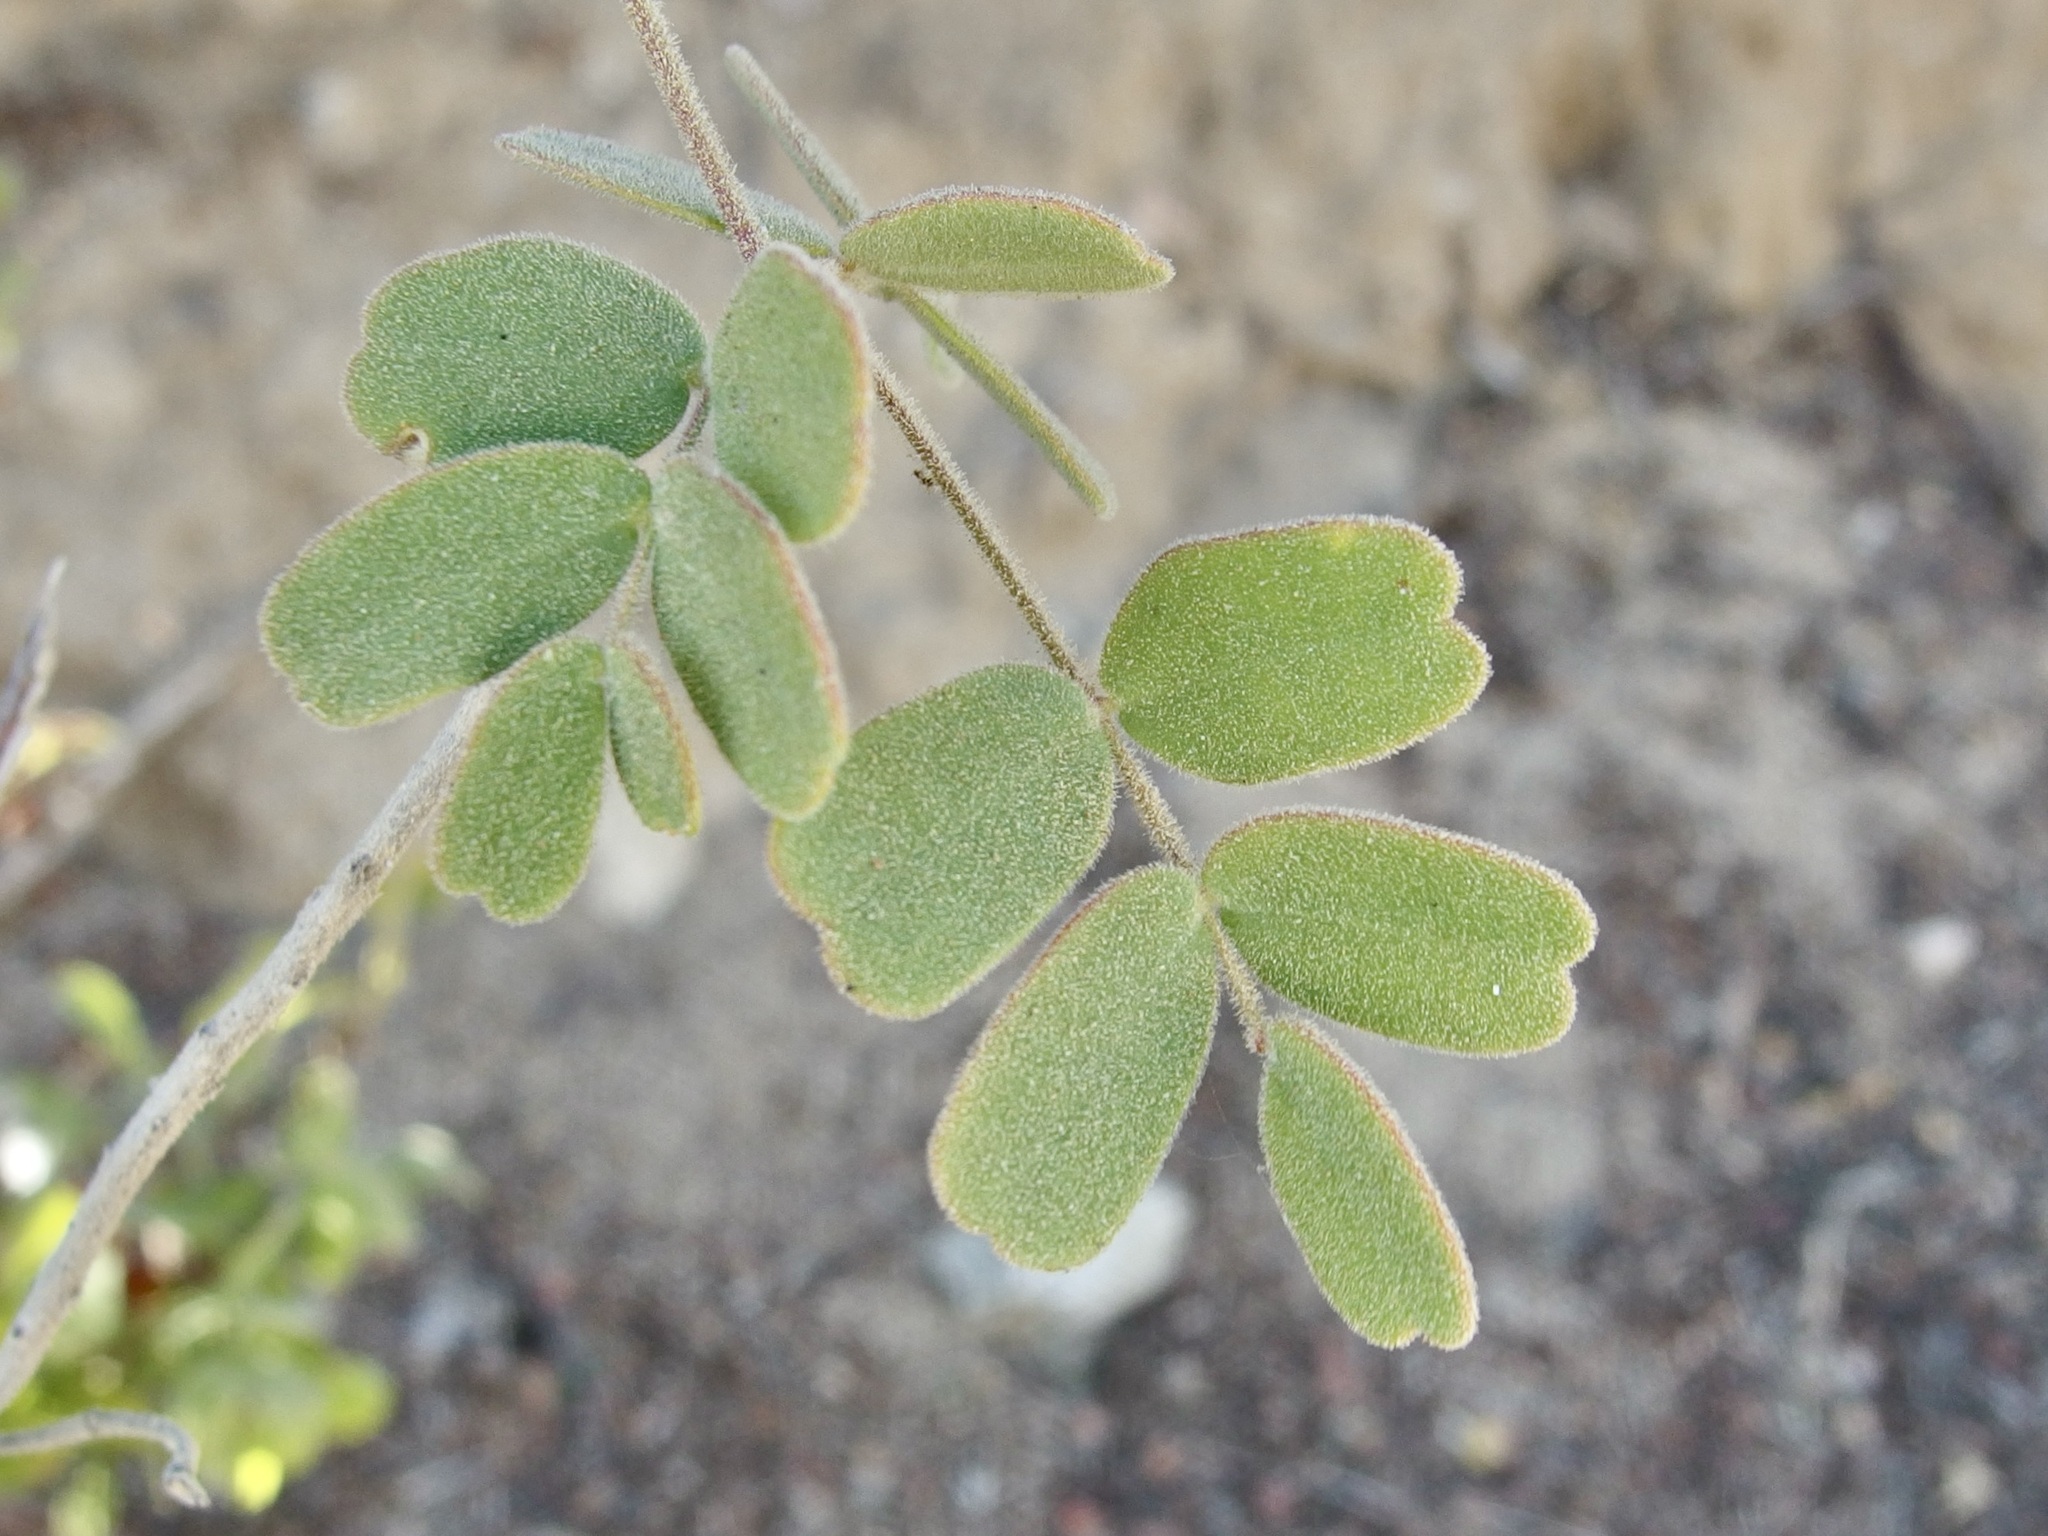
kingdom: Plantae
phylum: Tracheophyta
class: Magnoliopsida
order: Fabales
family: Fabaceae
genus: Erythrostemon
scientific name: Erythrostemon pannosus
